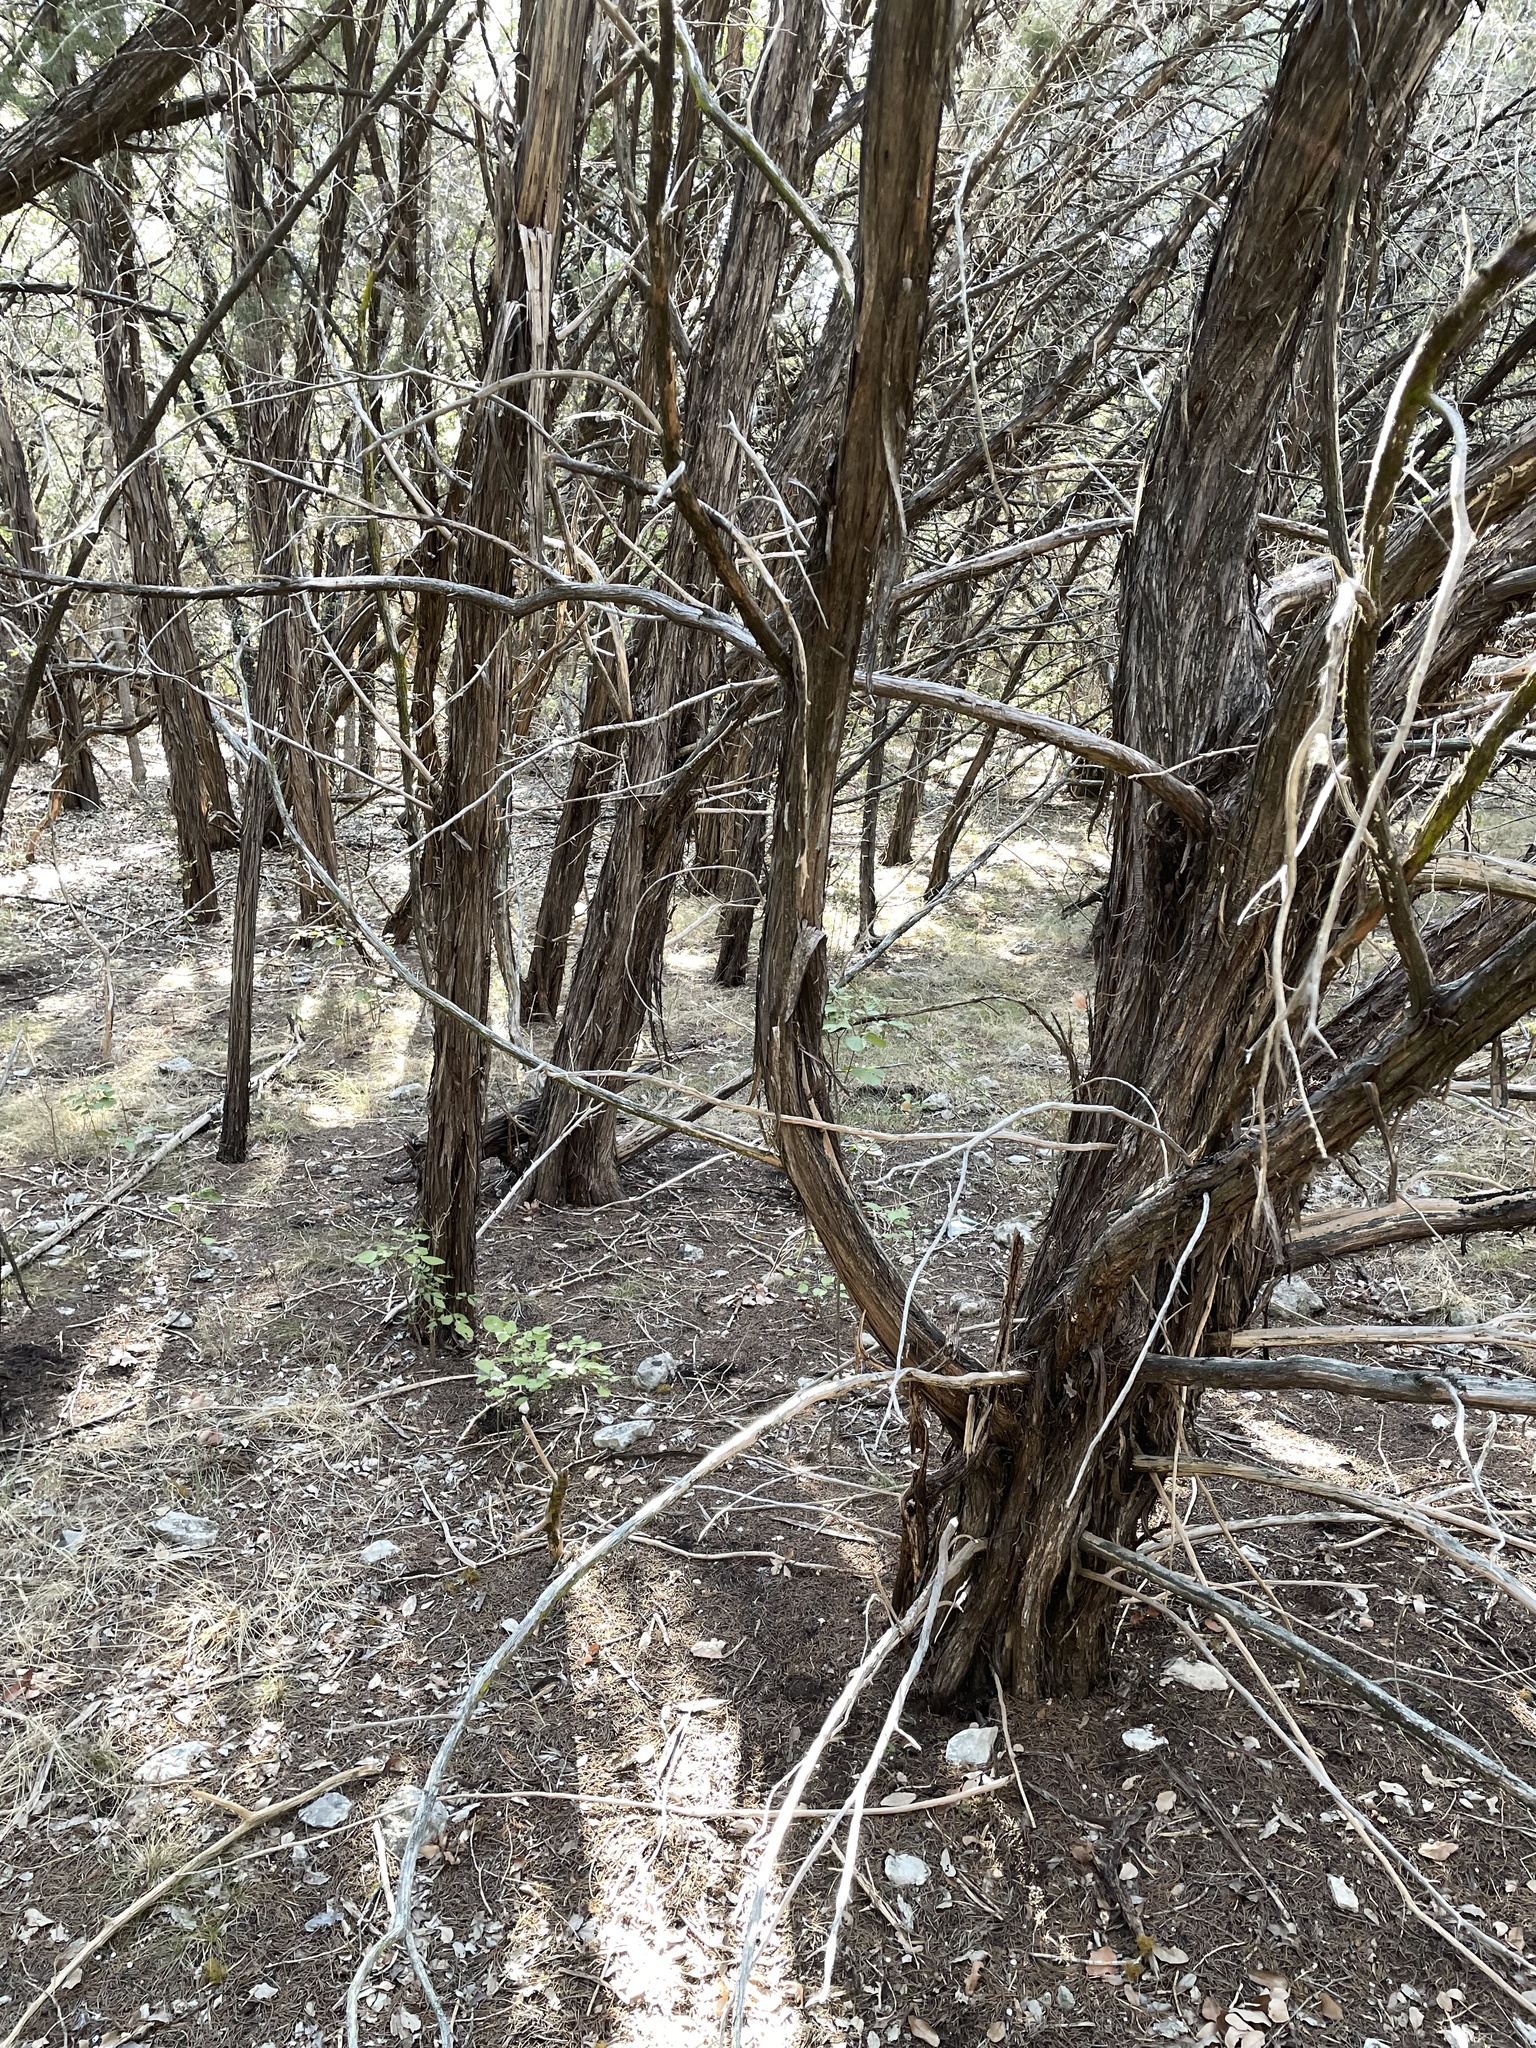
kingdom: Plantae
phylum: Tracheophyta
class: Pinopsida
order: Pinales
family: Cupressaceae
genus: Juniperus
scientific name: Juniperus ashei
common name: Mexican juniper
